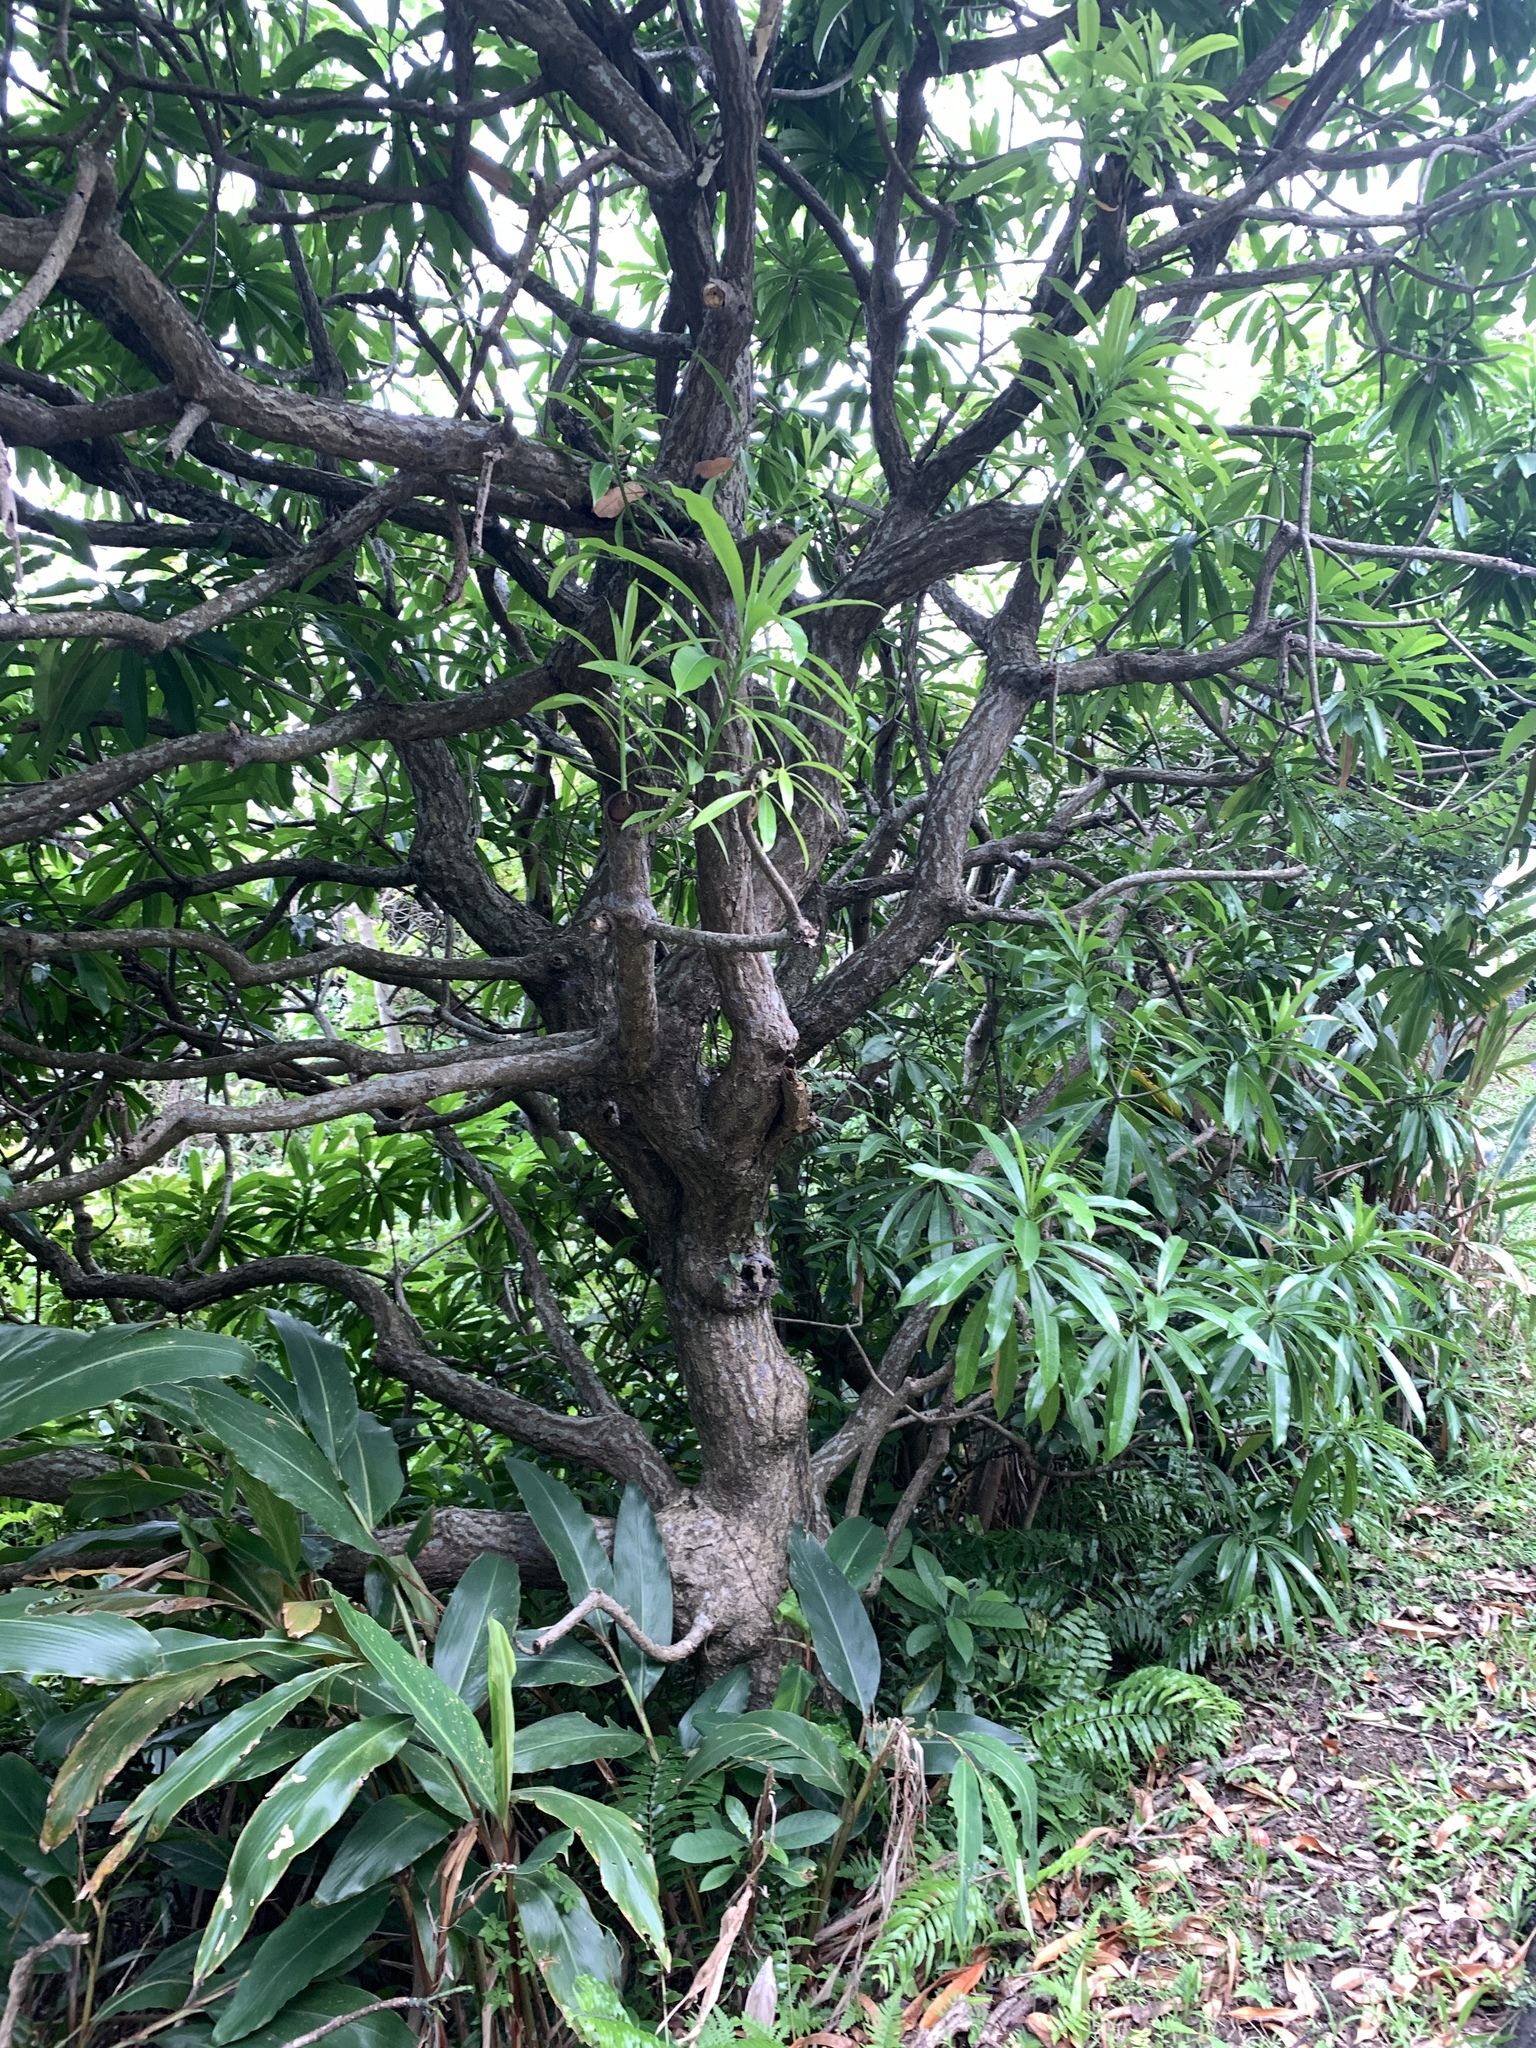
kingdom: Plantae
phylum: Tracheophyta
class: Magnoliopsida
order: Gentianales
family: Apocynaceae
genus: Cerbera
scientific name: Cerbera manghas
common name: Reva
